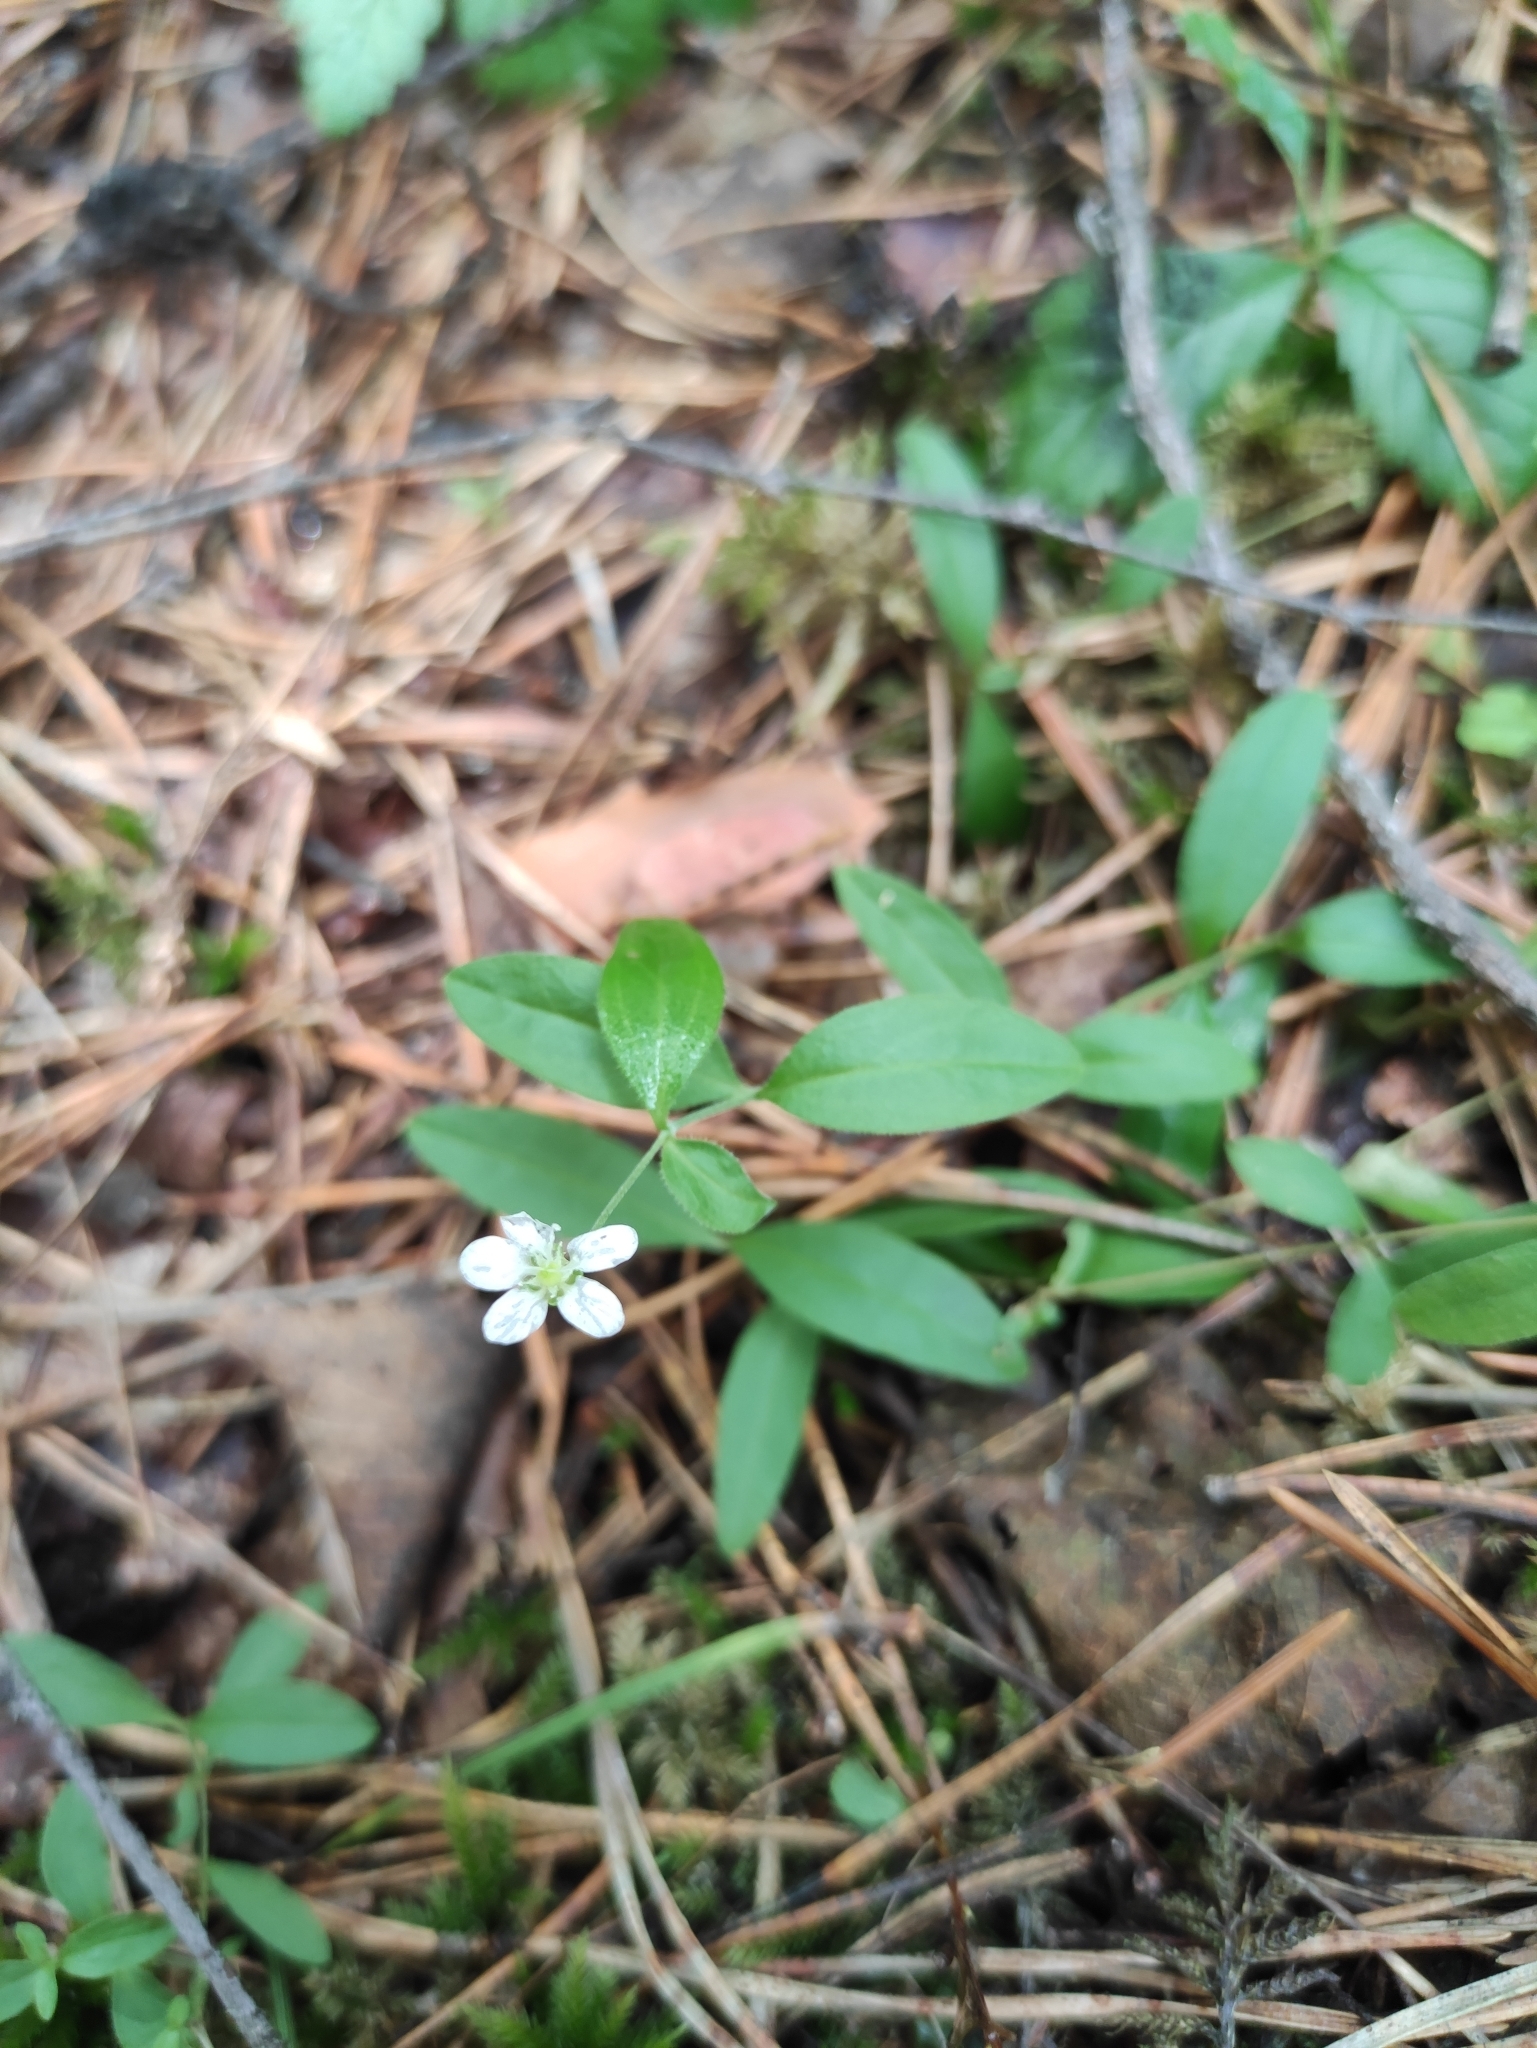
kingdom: Plantae
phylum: Tracheophyta
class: Magnoliopsida
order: Caryophyllales
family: Caryophyllaceae
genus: Moehringia
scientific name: Moehringia lateriflora
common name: Blunt-leaved sandwort
